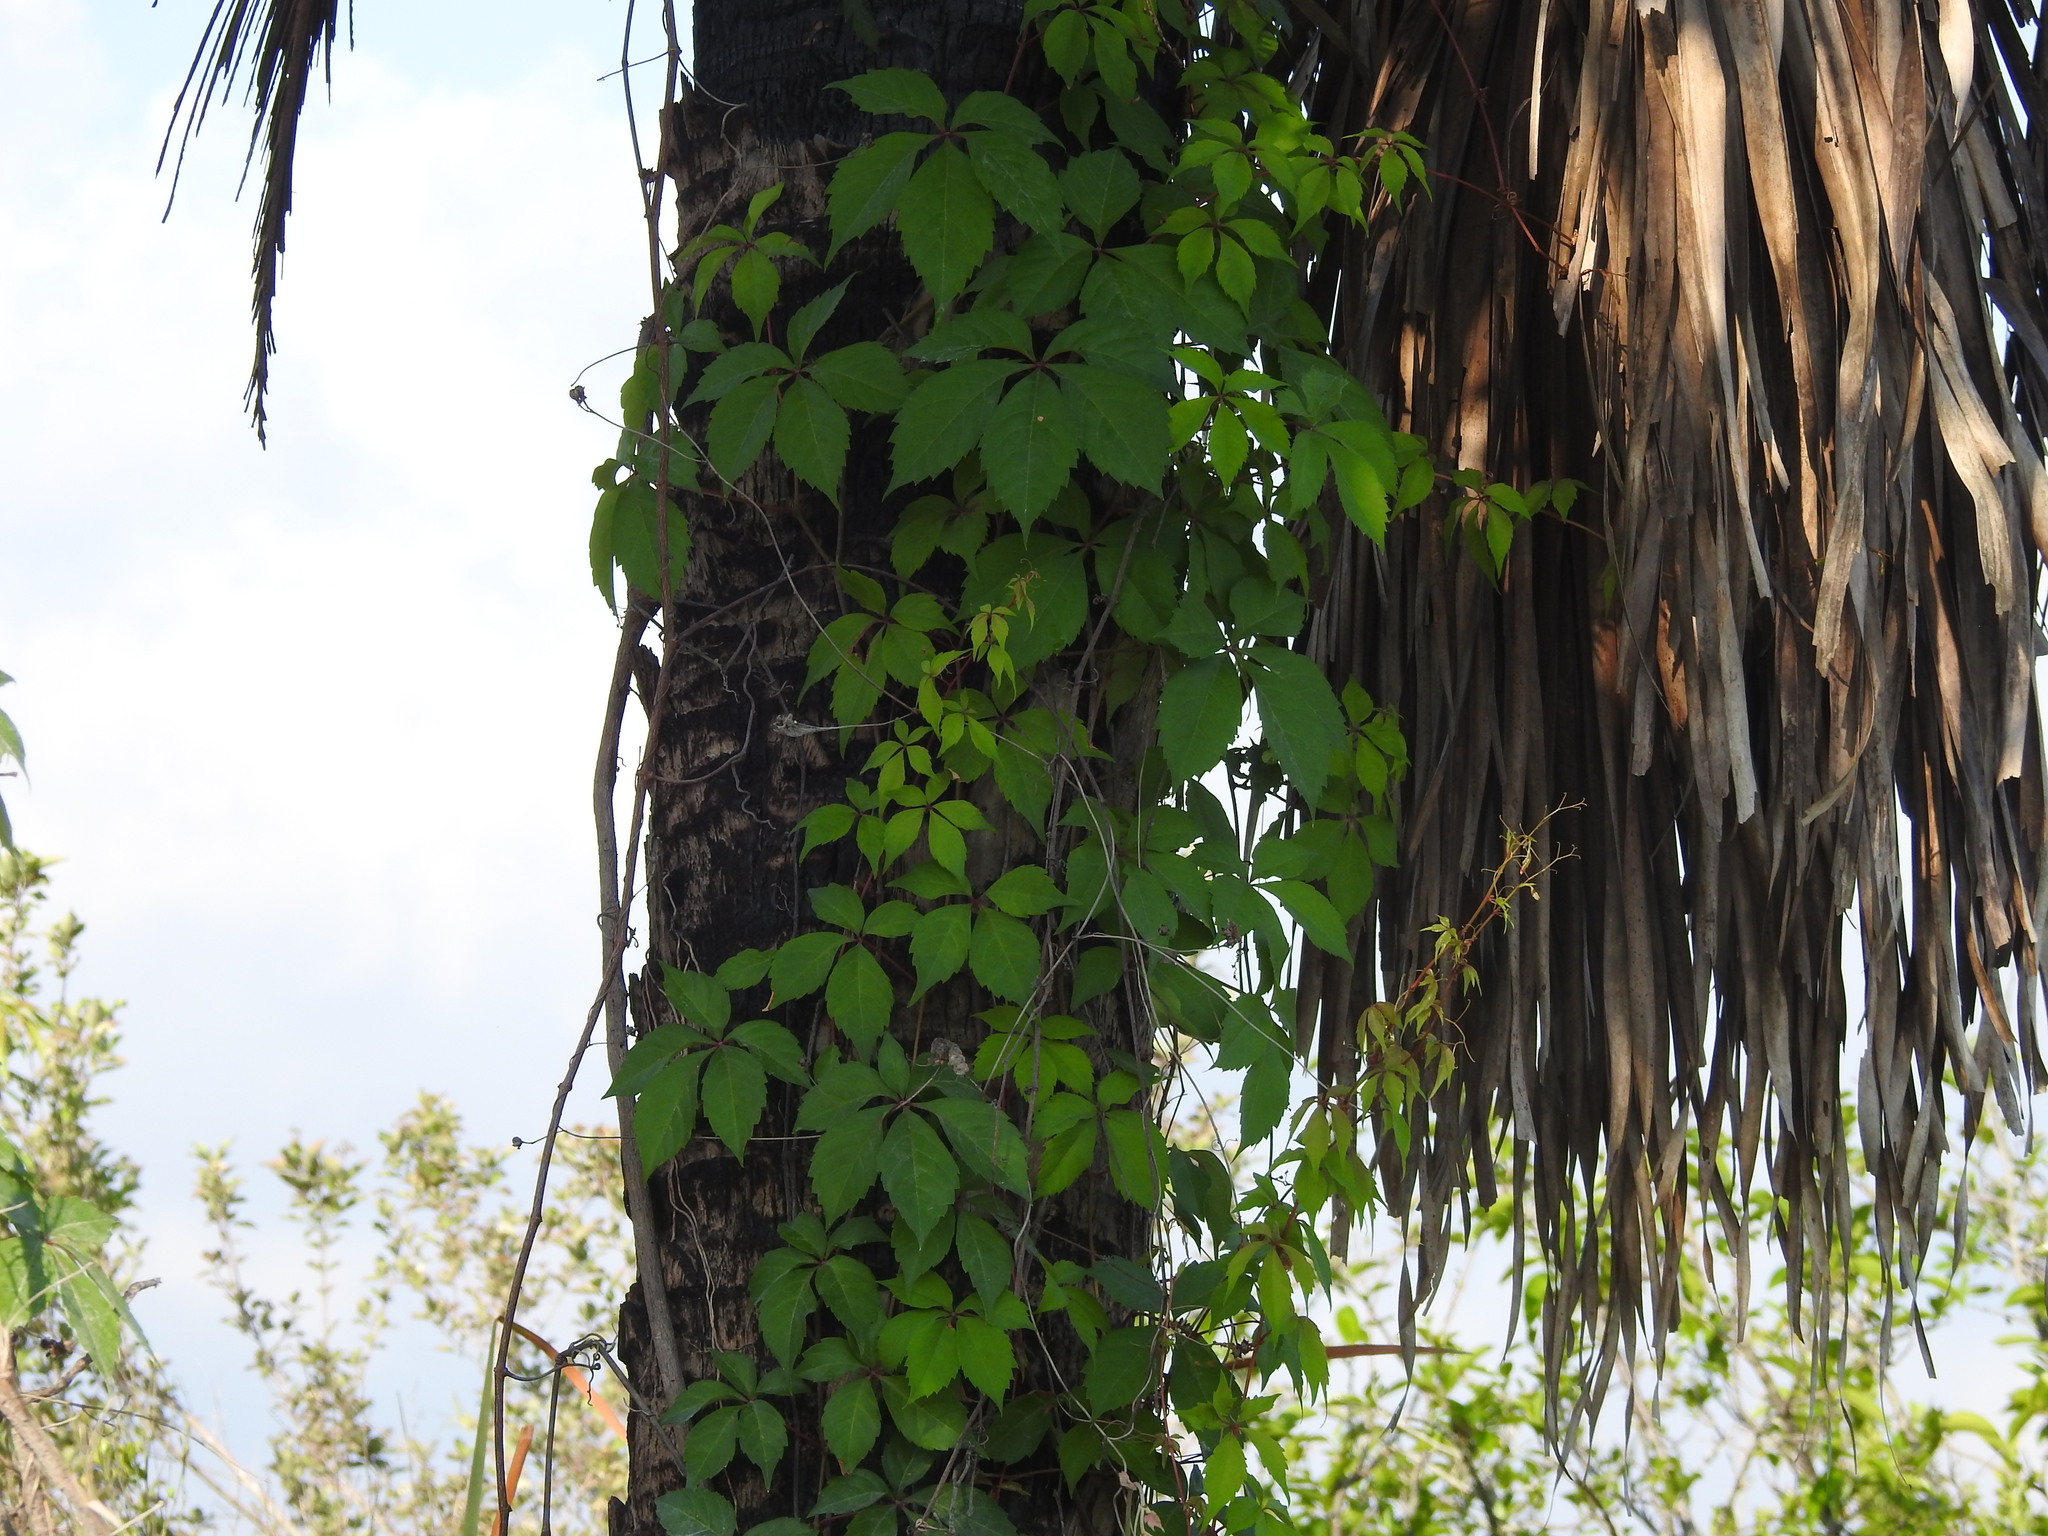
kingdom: Plantae
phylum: Tracheophyta
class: Magnoliopsida
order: Vitales
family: Vitaceae
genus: Parthenocissus
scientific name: Parthenocissus quinquefolia
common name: Virginia-creeper
